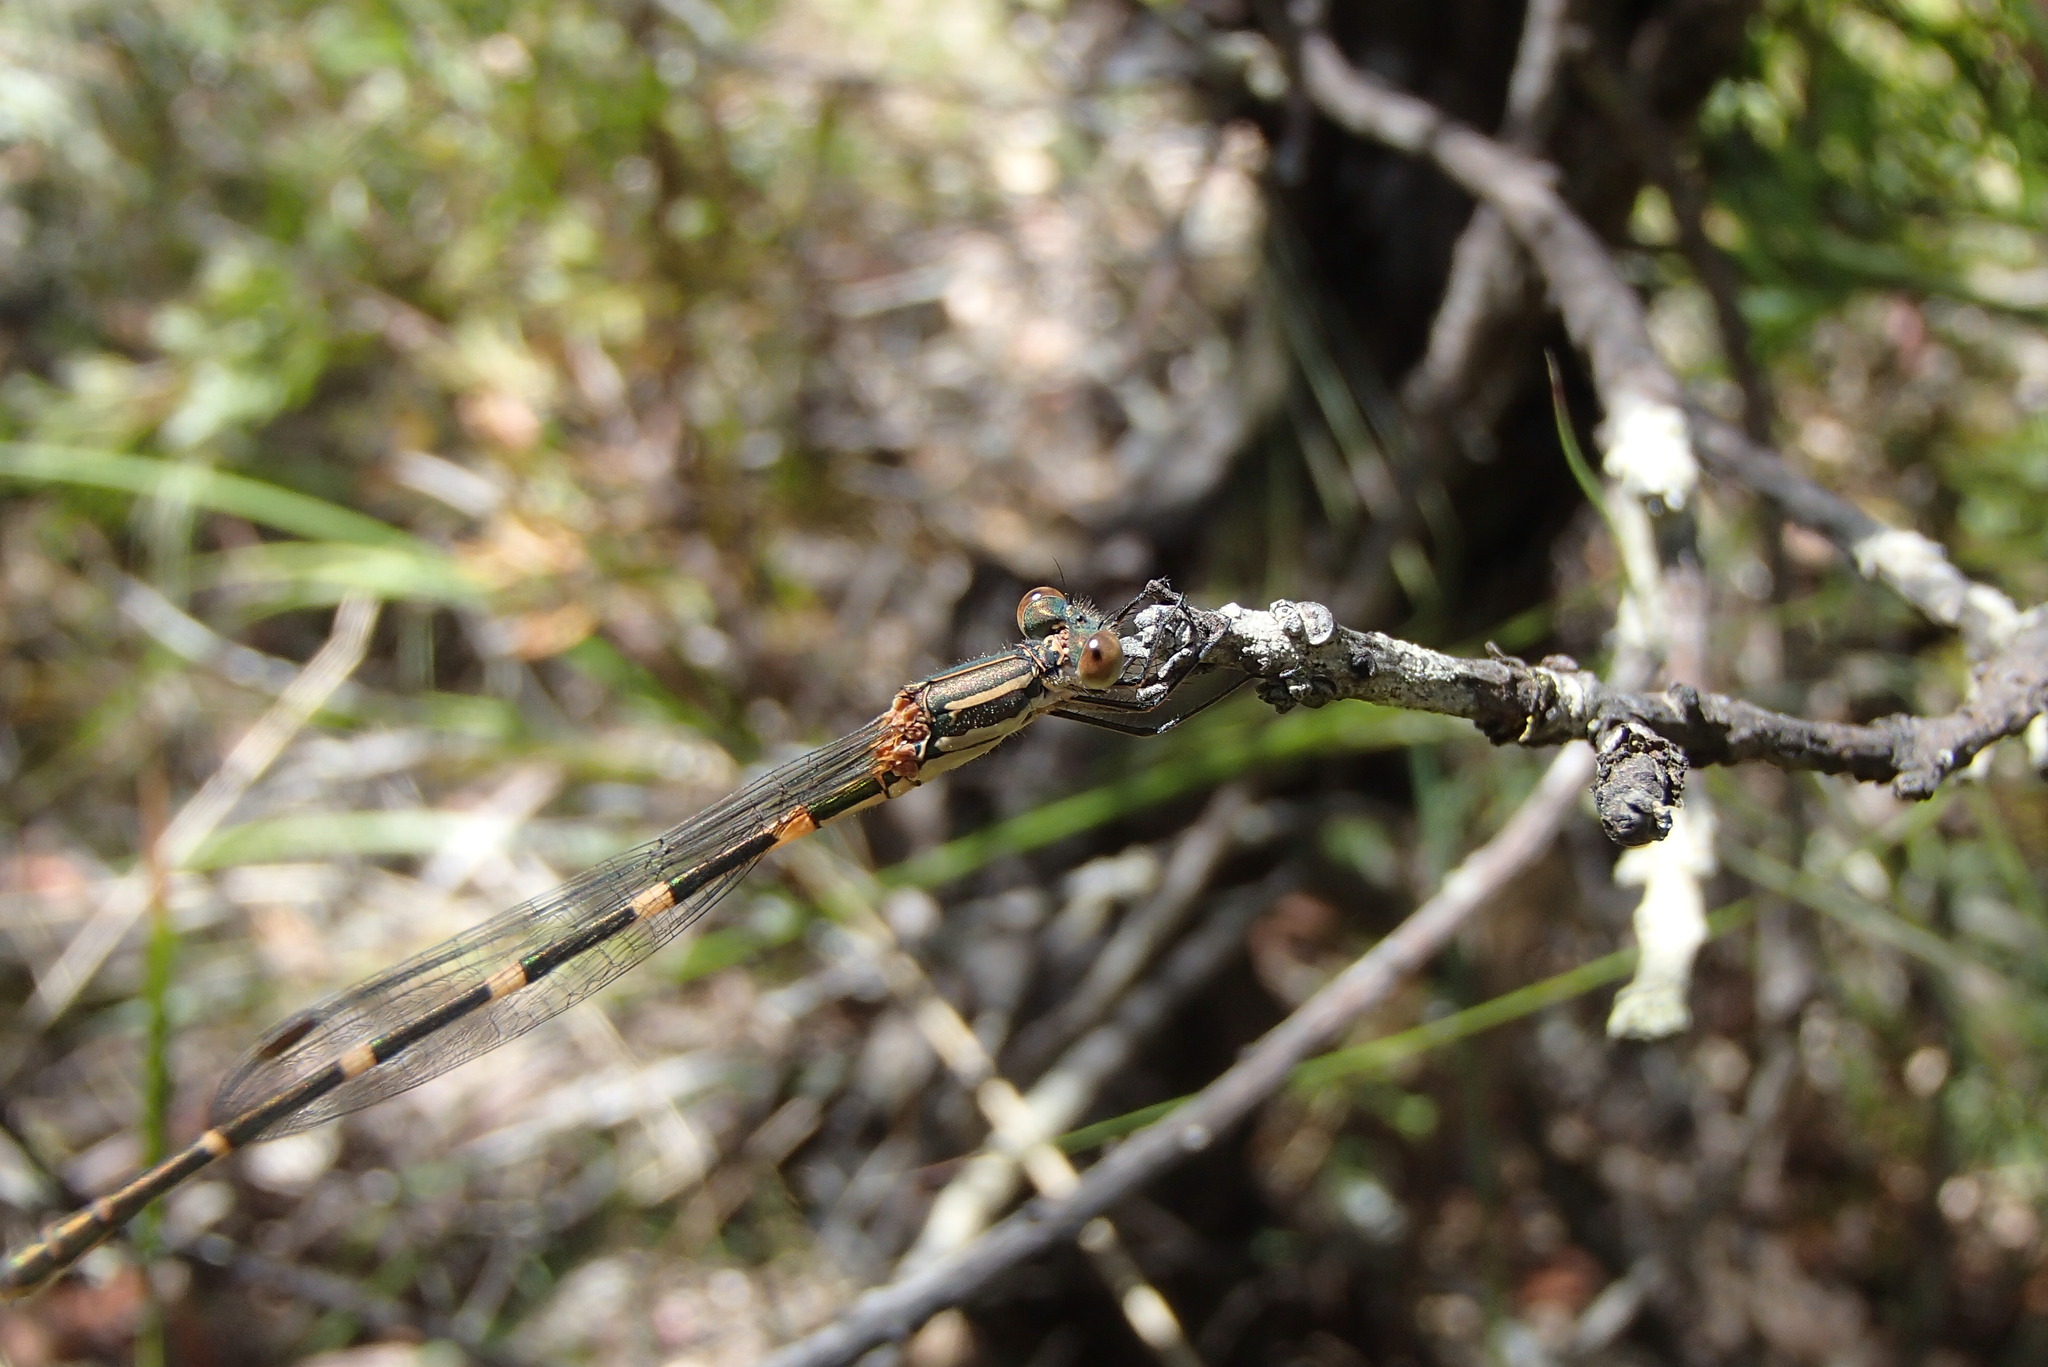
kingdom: Animalia
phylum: Arthropoda
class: Insecta
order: Odonata
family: Lestidae
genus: Austrolestes
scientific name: Austrolestes leda
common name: Wandering ringtail
